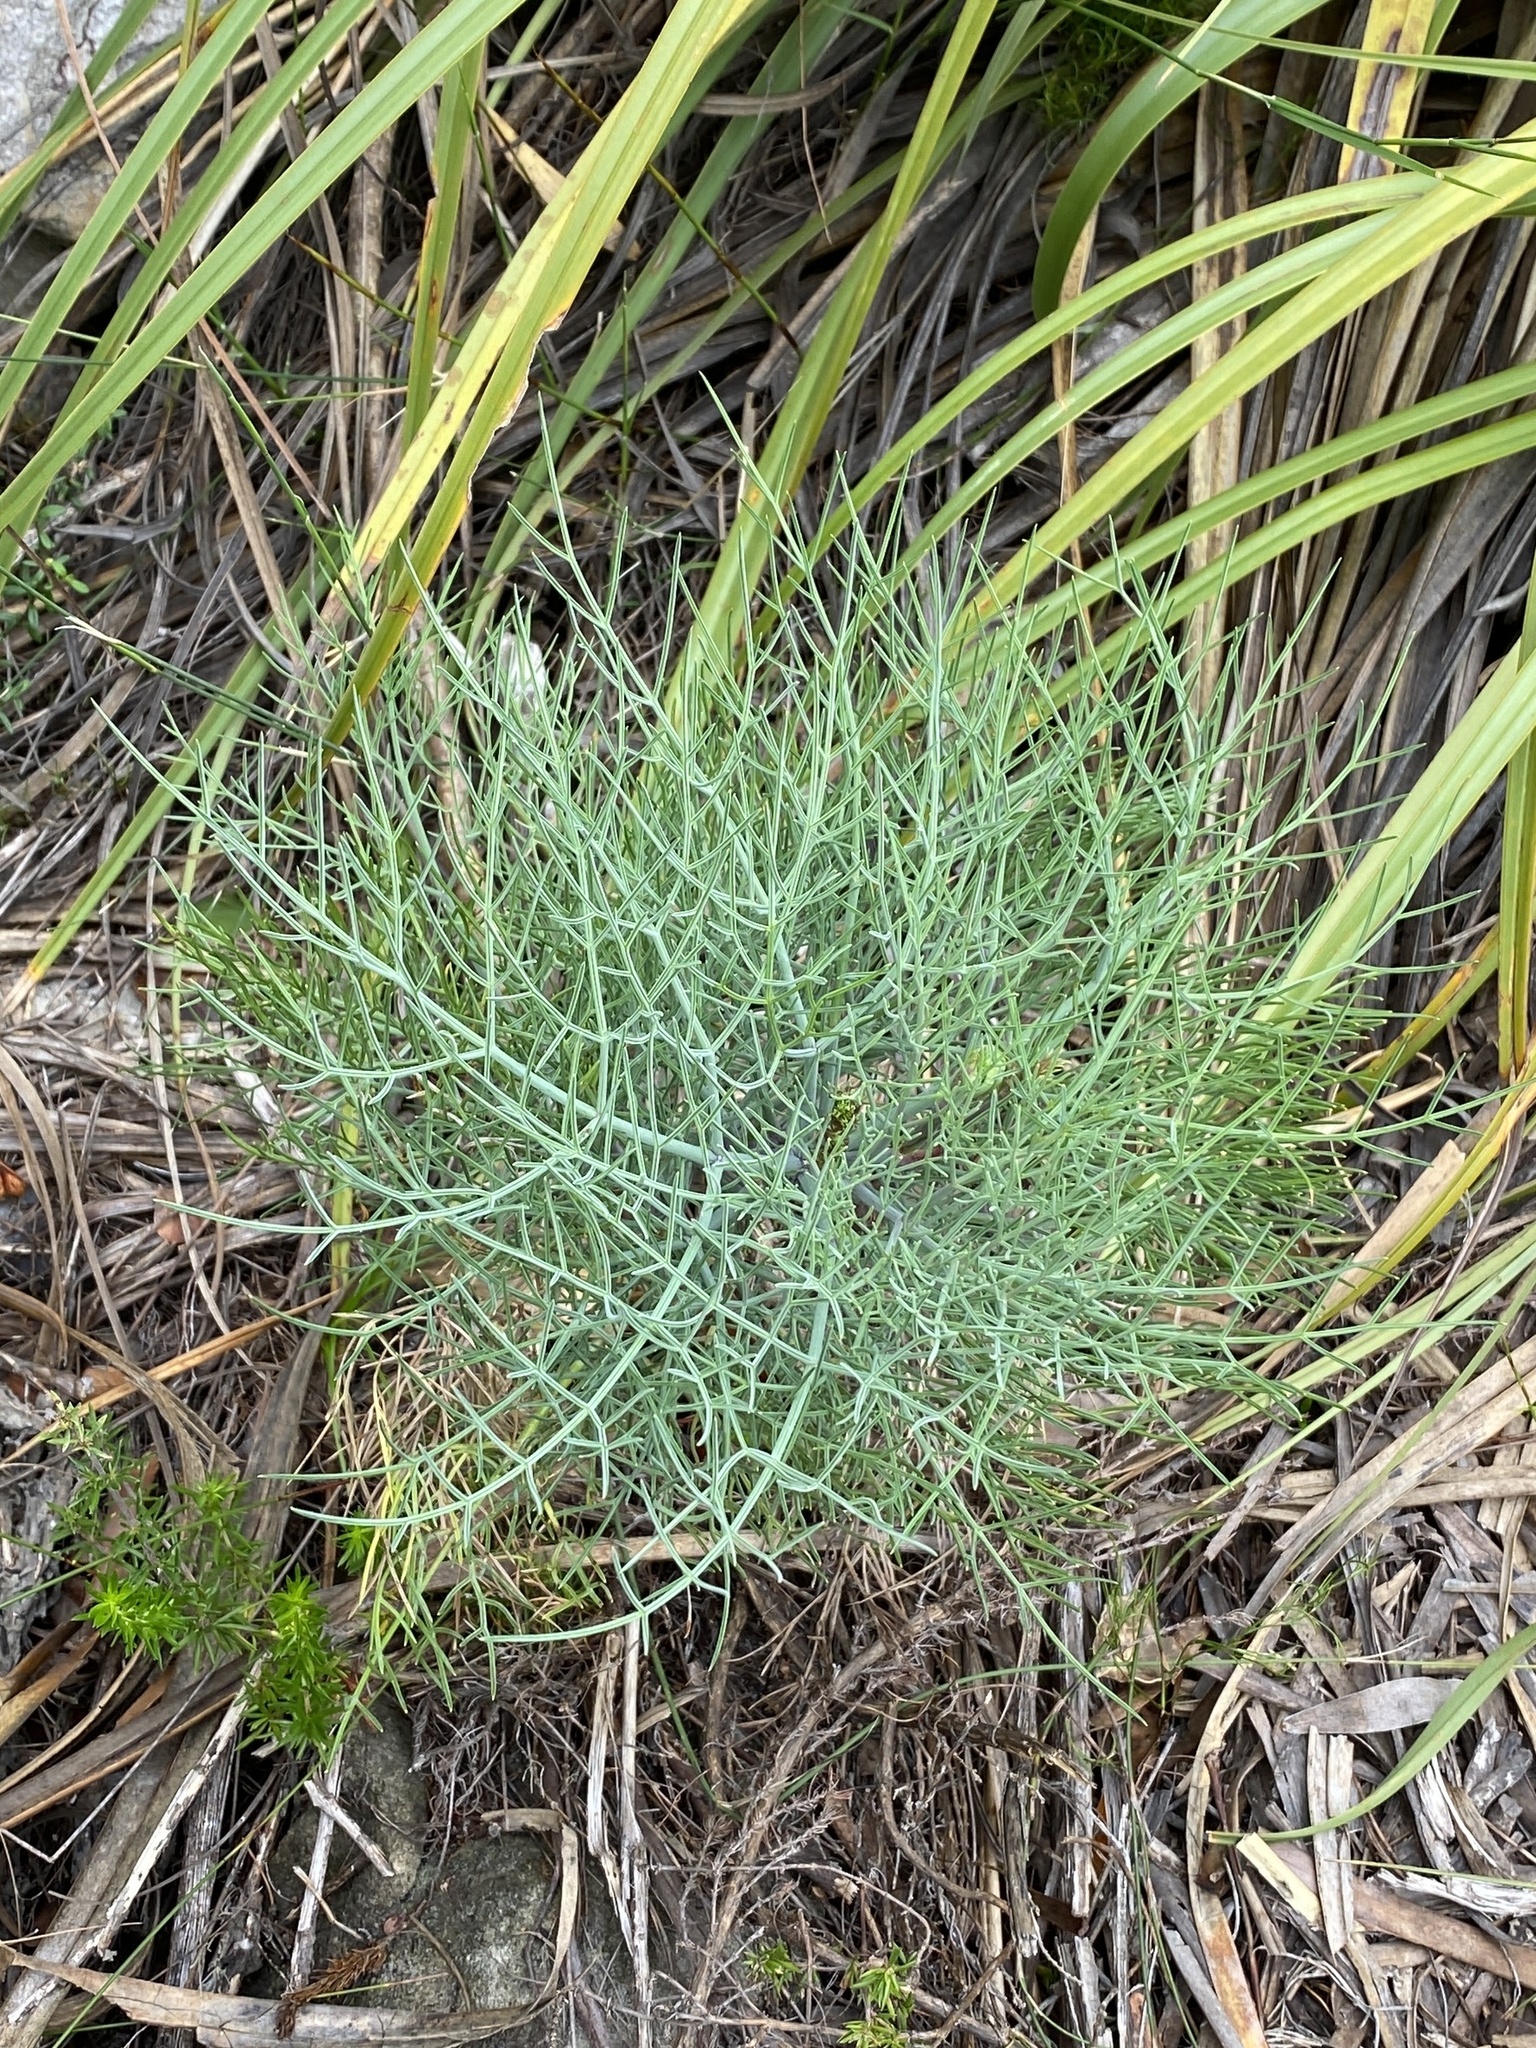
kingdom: Plantae
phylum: Tracheophyta
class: Magnoliopsida
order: Apiales
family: Apiaceae
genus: Notobubon
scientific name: Notobubon capense
